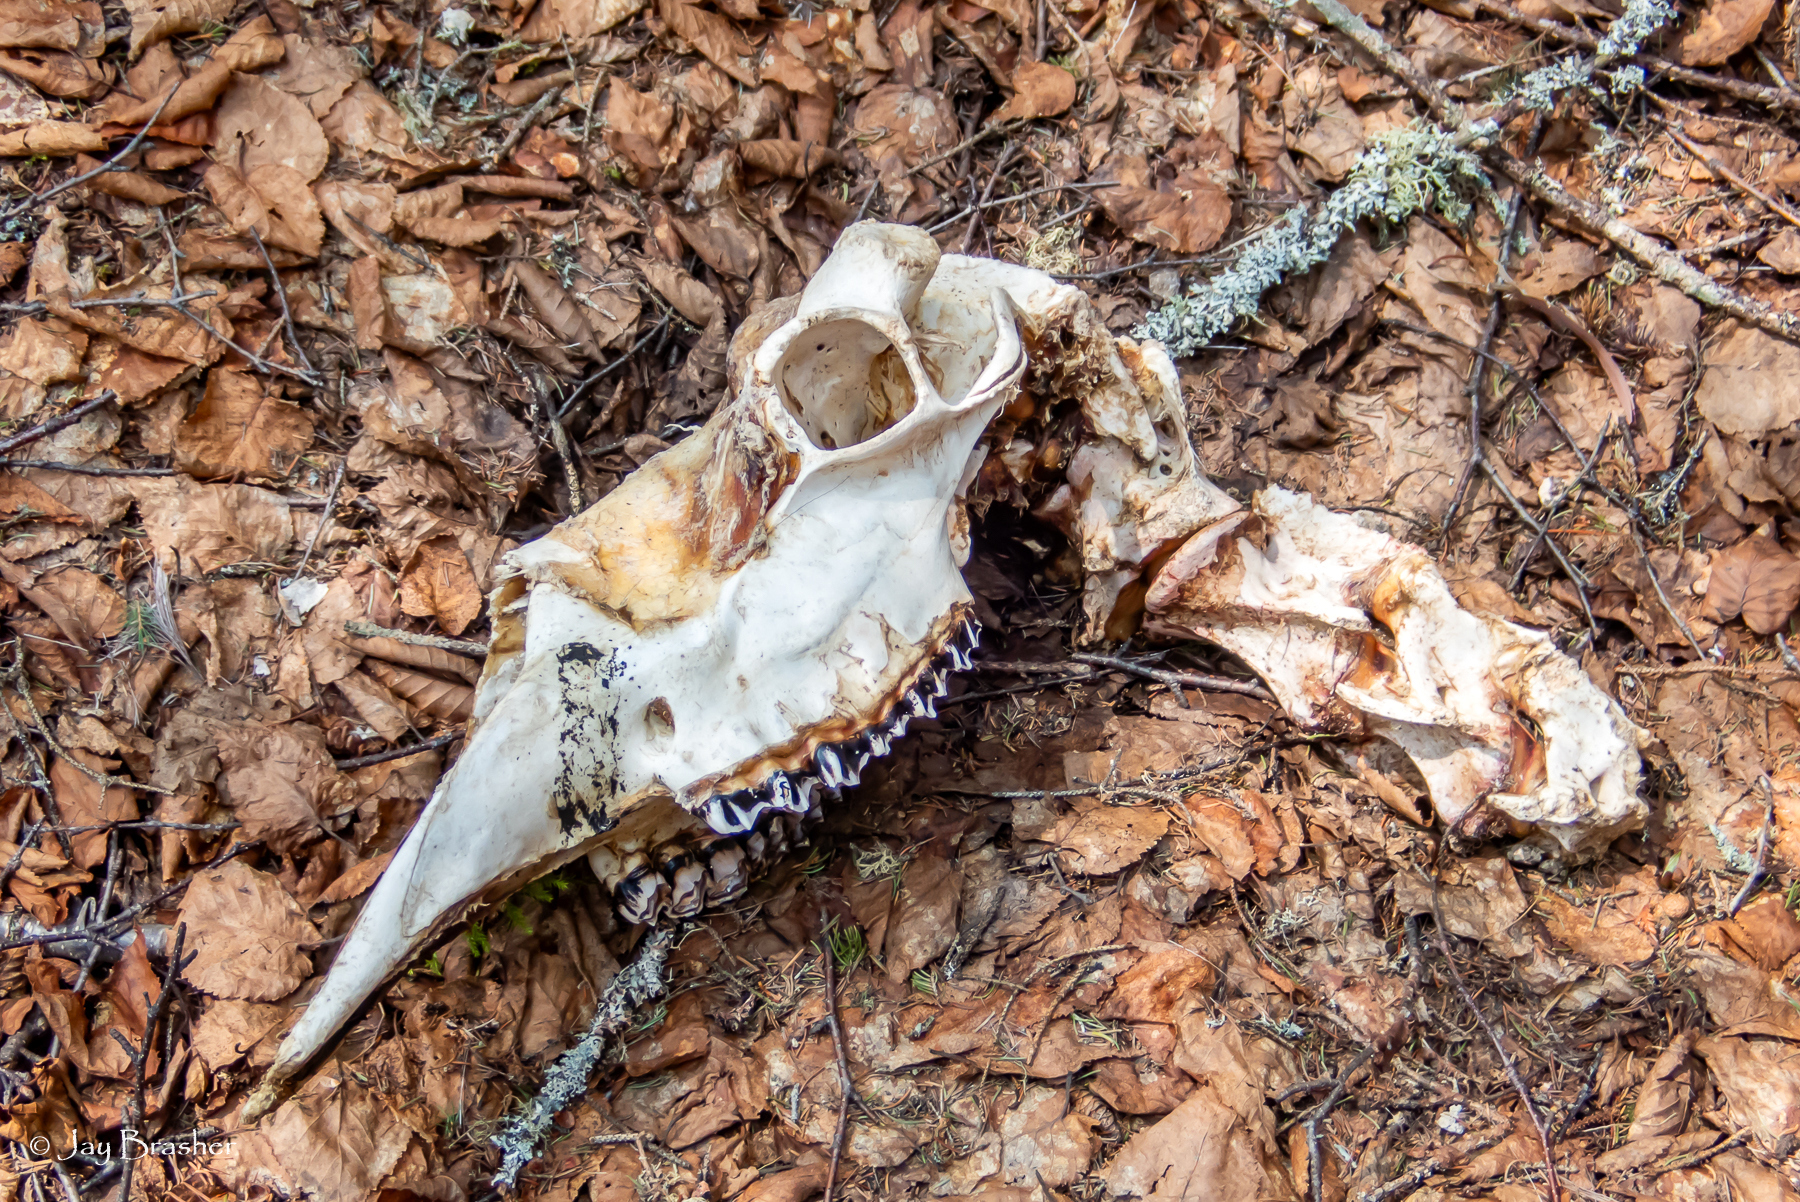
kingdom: Animalia
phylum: Chordata
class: Mammalia
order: Artiodactyla
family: Cervidae
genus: Alces
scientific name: Alces americanus
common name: Moose
